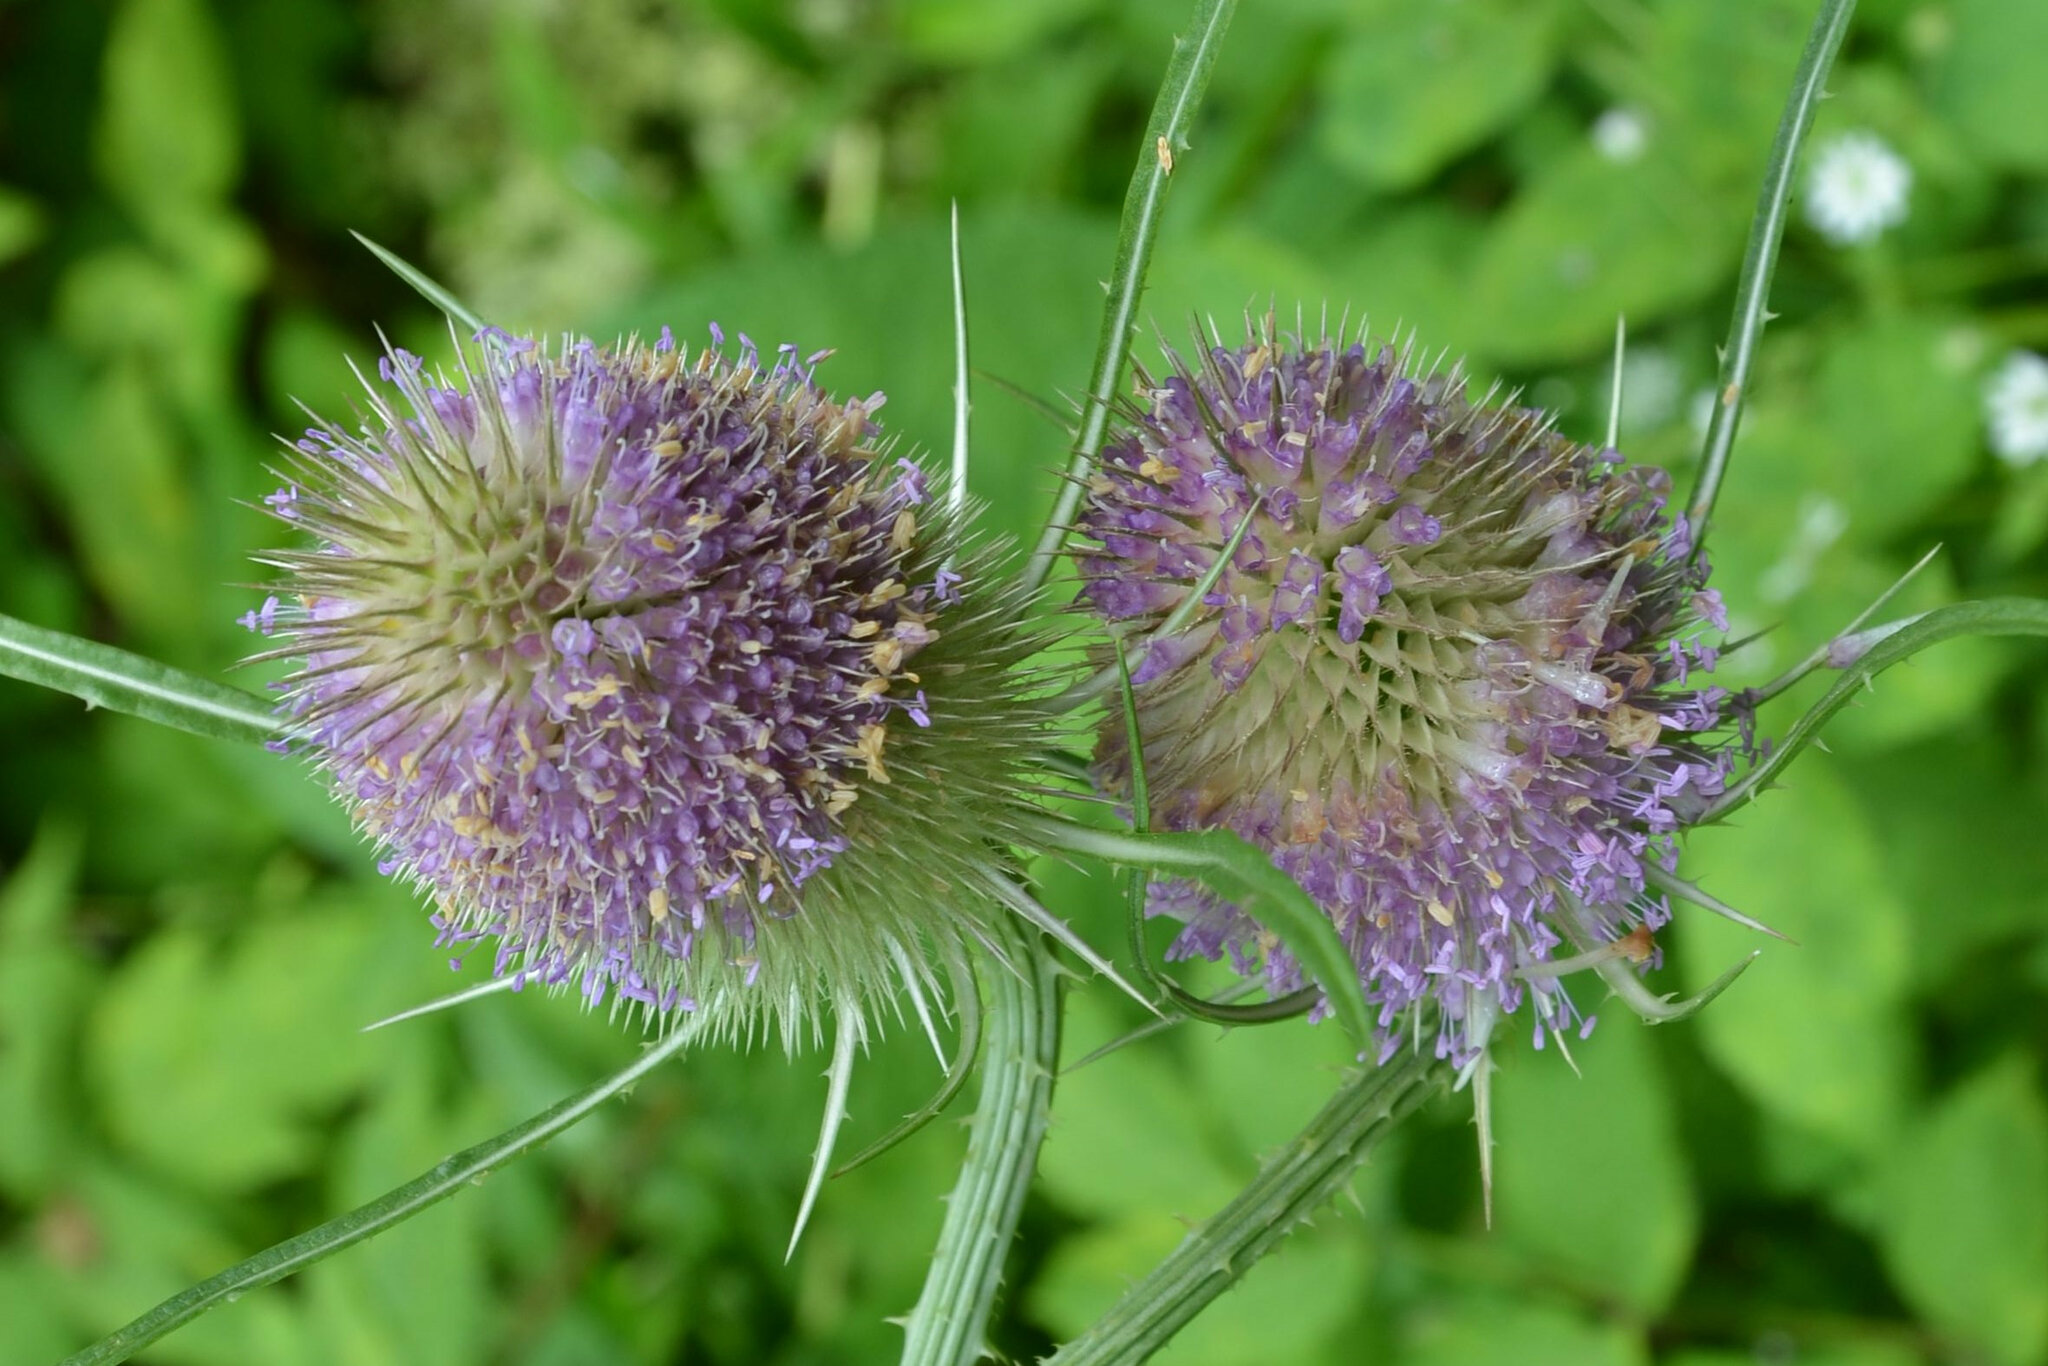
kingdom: Plantae
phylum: Tracheophyta
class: Magnoliopsida
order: Dipsacales
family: Caprifoliaceae
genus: Dipsacus
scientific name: Dipsacus fullonum
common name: Teasel
